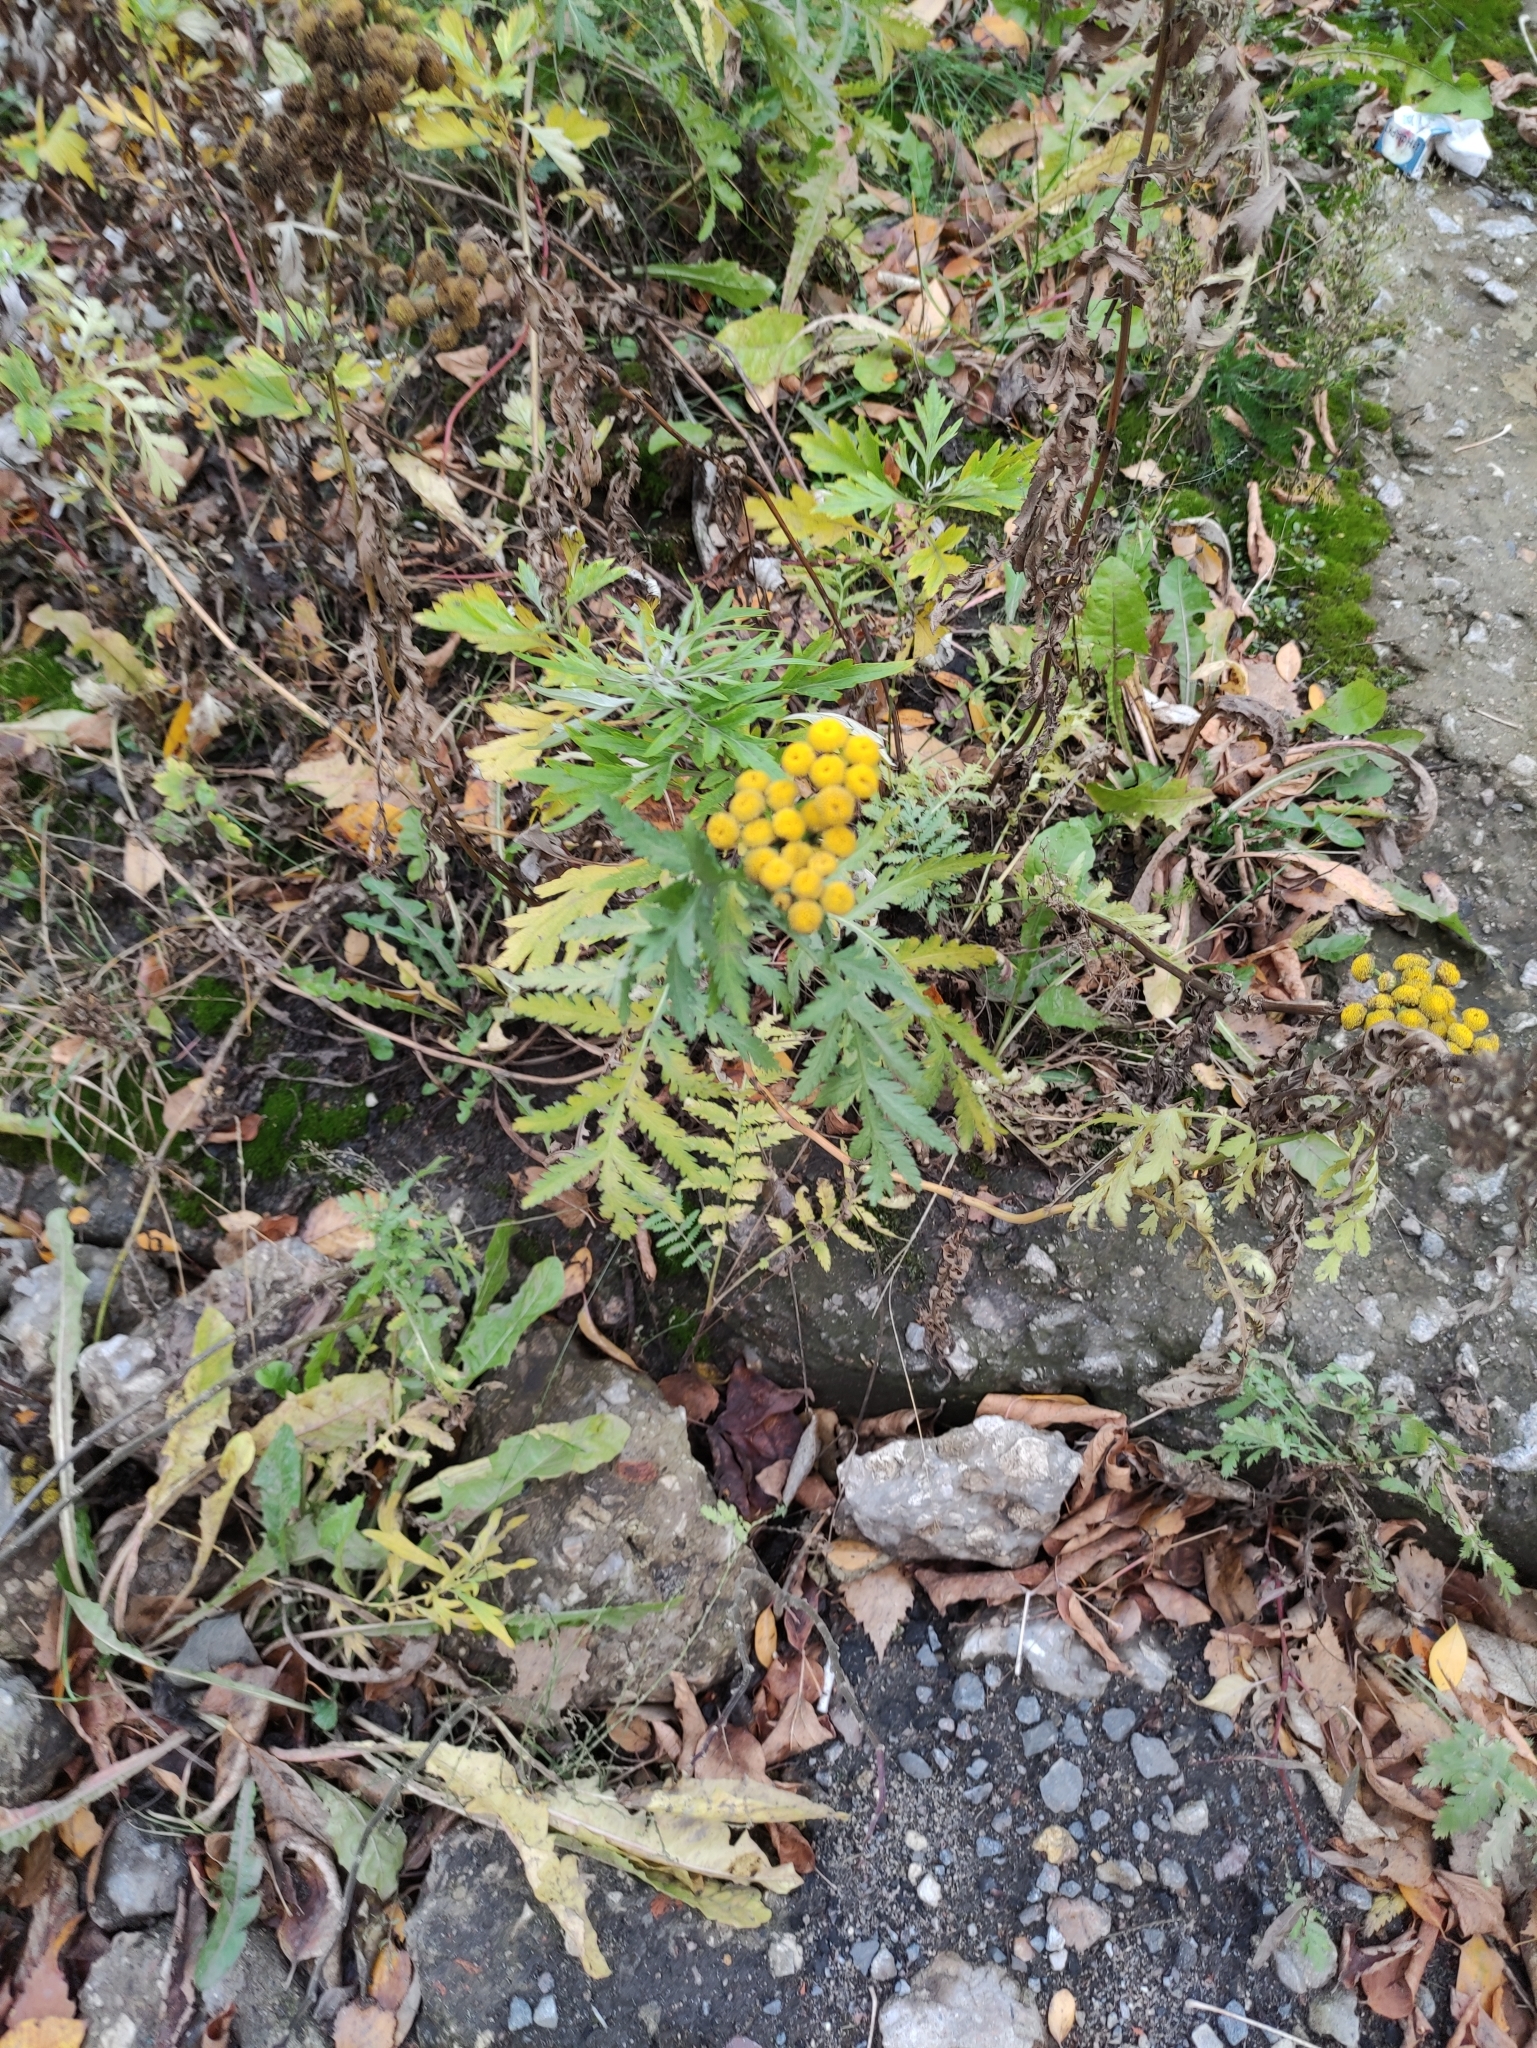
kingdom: Plantae
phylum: Tracheophyta
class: Magnoliopsida
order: Asterales
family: Asteraceae
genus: Tanacetum
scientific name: Tanacetum vulgare
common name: Common tansy
